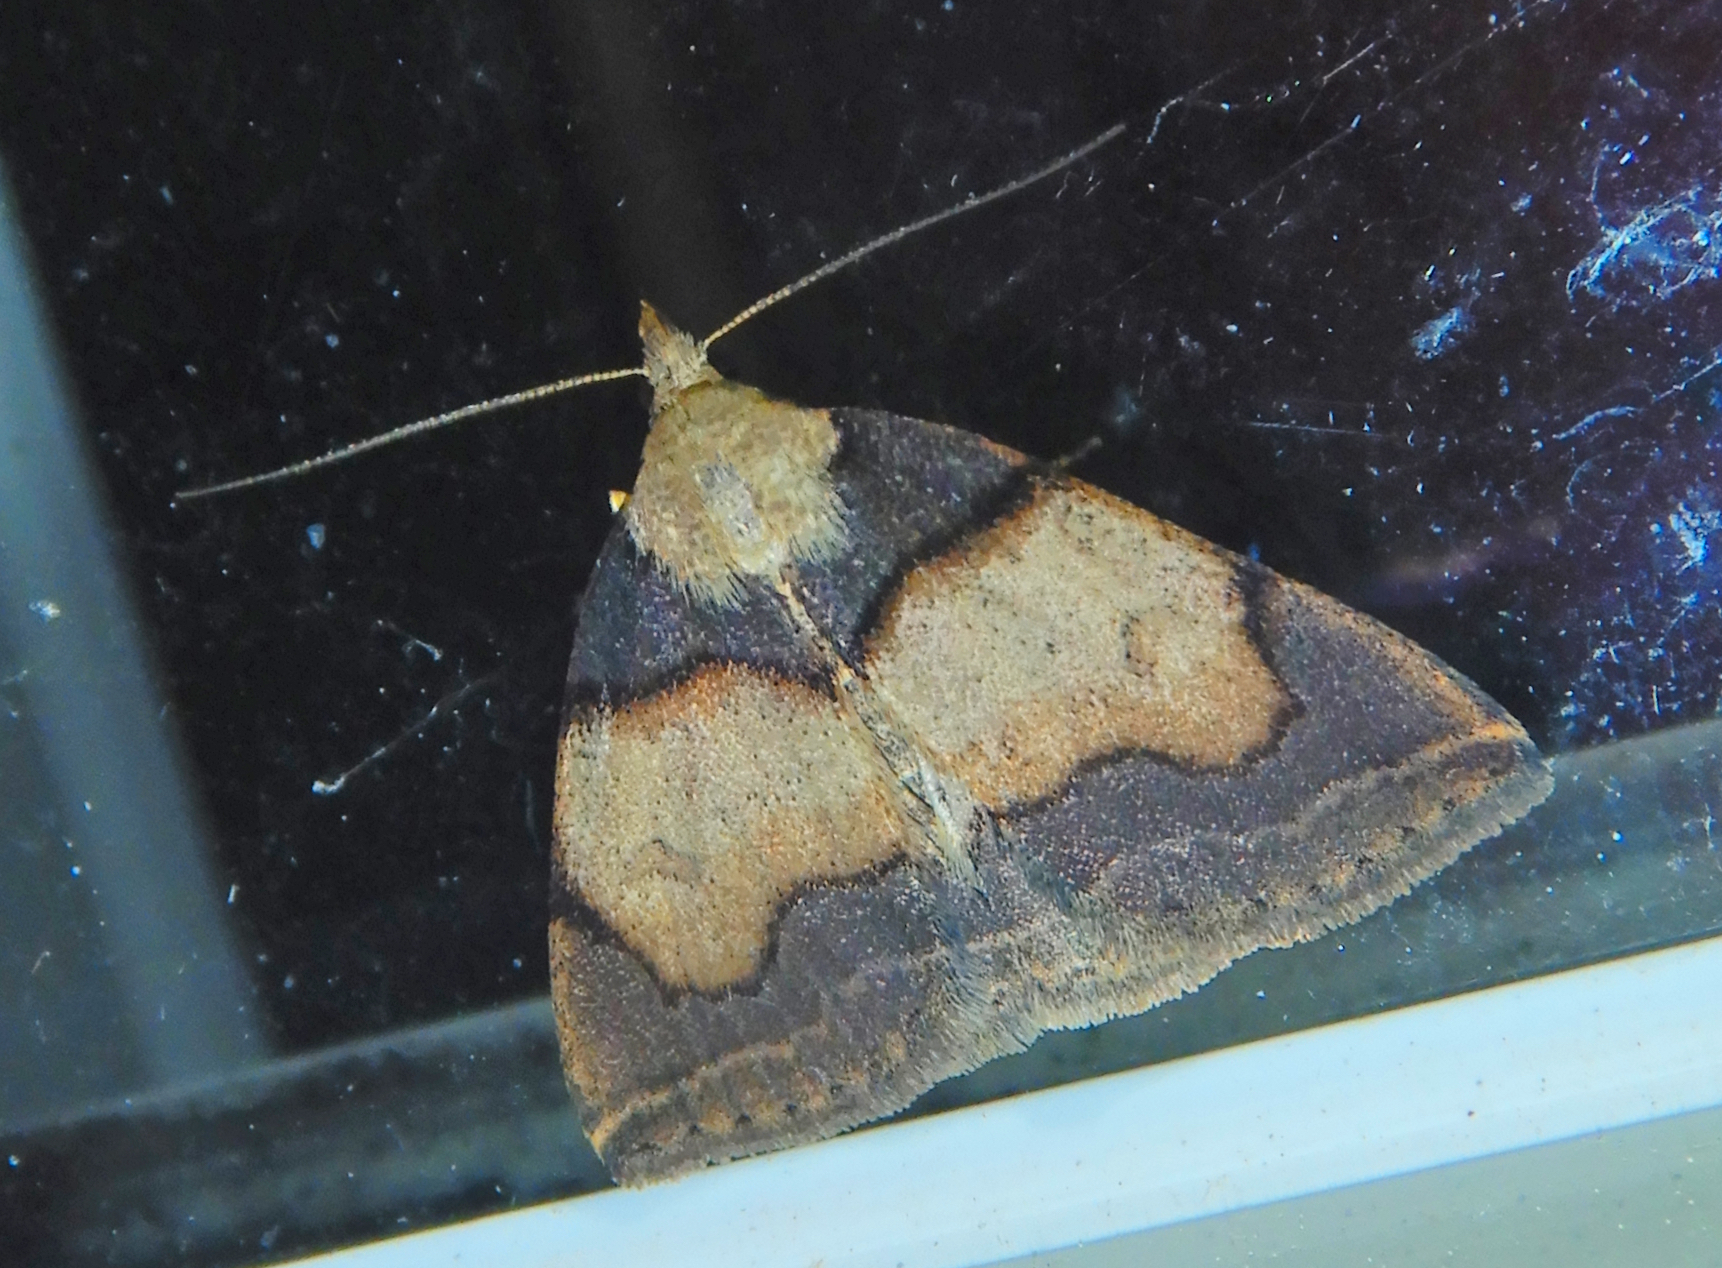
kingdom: Animalia
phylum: Arthropoda
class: Insecta
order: Lepidoptera
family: Erebidae
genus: Zanclognatha
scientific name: Zanclognatha laevigata
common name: Variable fan-foot
